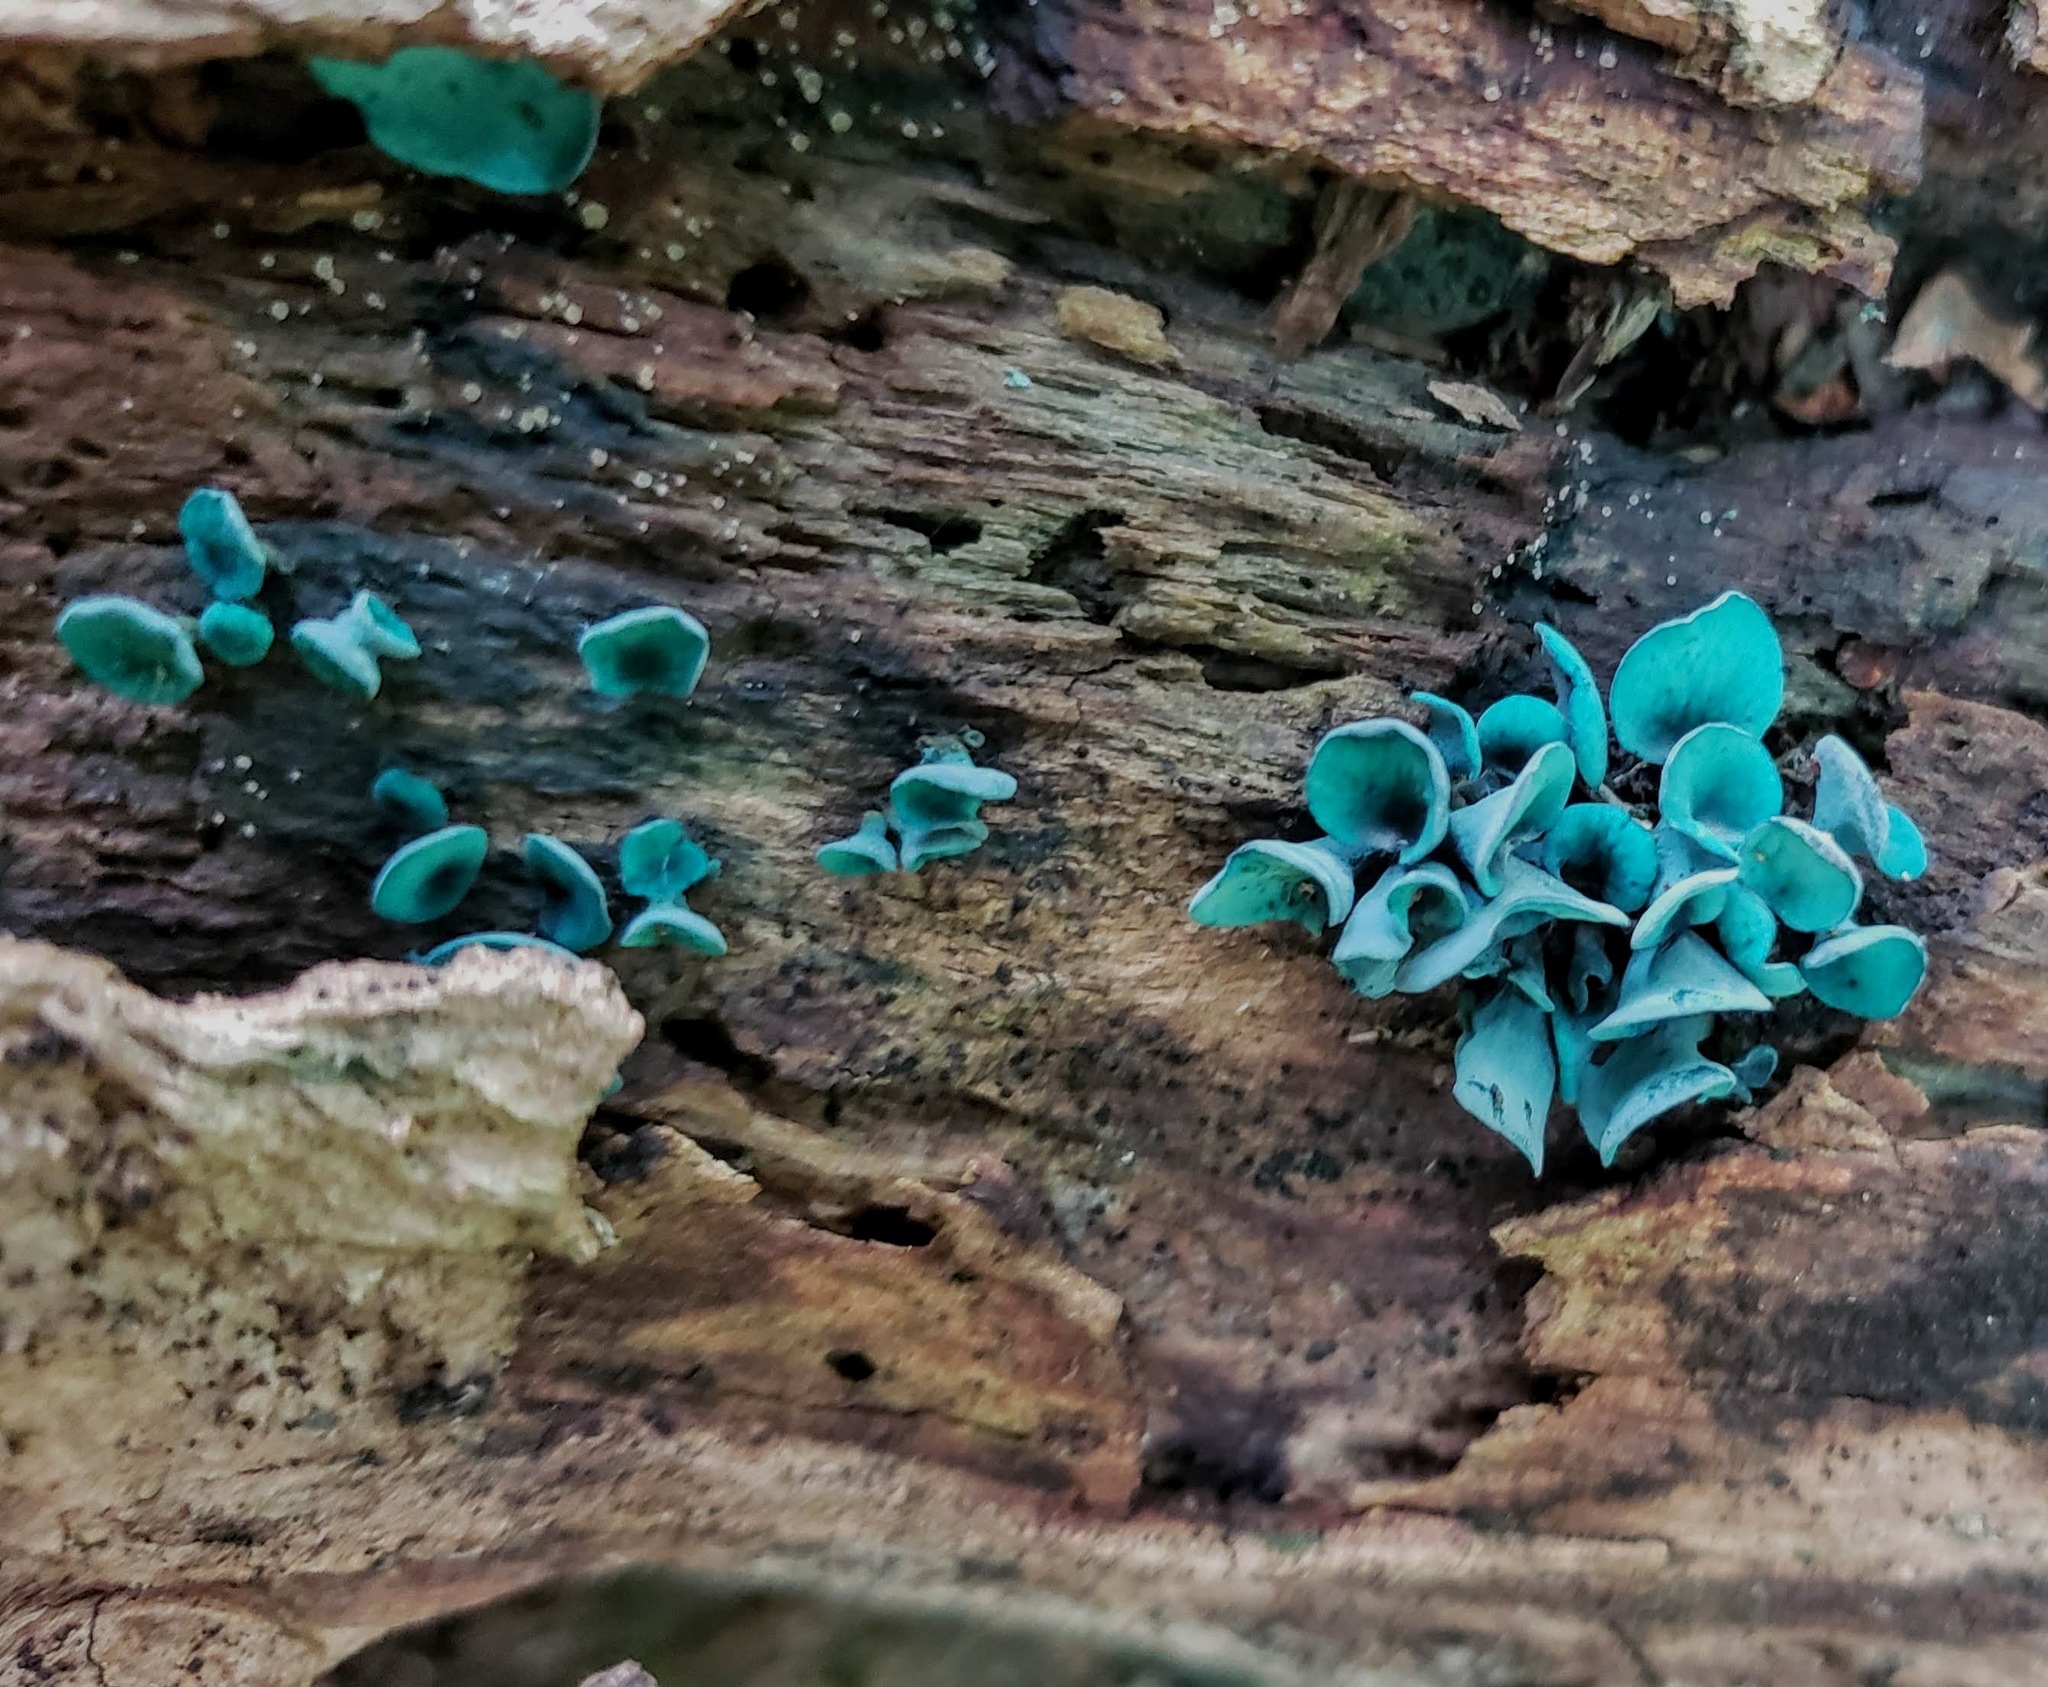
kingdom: Fungi
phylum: Ascomycota
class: Leotiomycetes
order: Helotiales
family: Chlorociboriaceae
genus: Chlorociboria
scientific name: Chlorociboria aeruginascens
